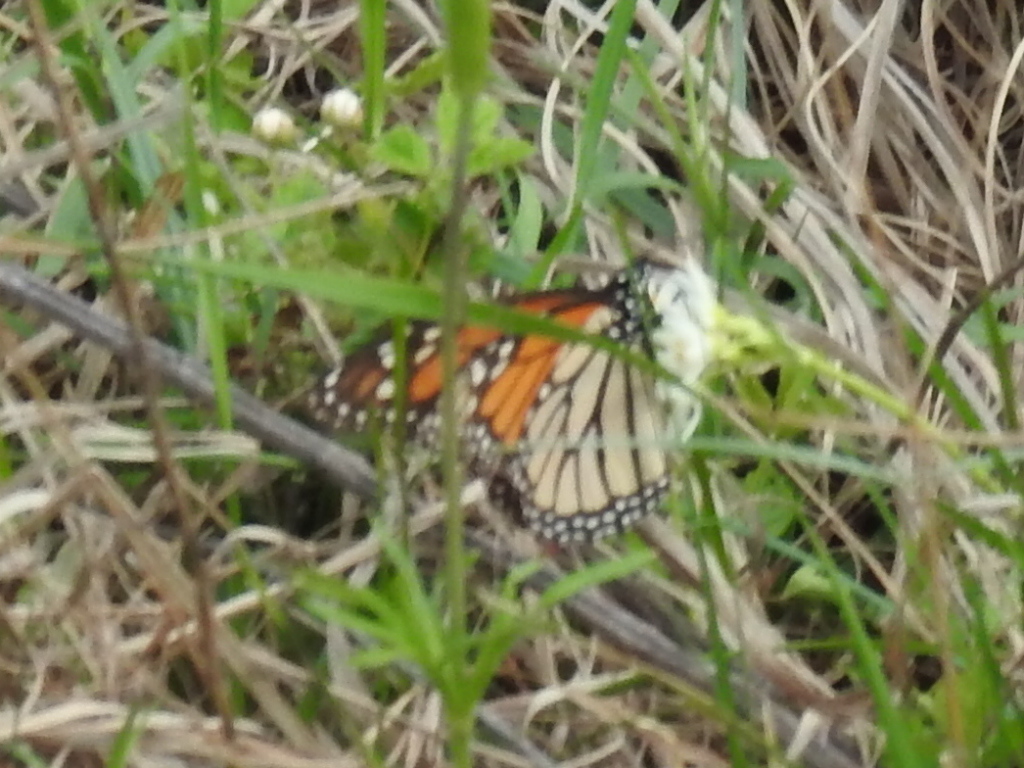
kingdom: Animalia
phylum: Arthropoda
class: Insecta
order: Lepidoptera
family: Nymphalidae
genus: Danaus
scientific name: Danaus plexippus
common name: Monarch
